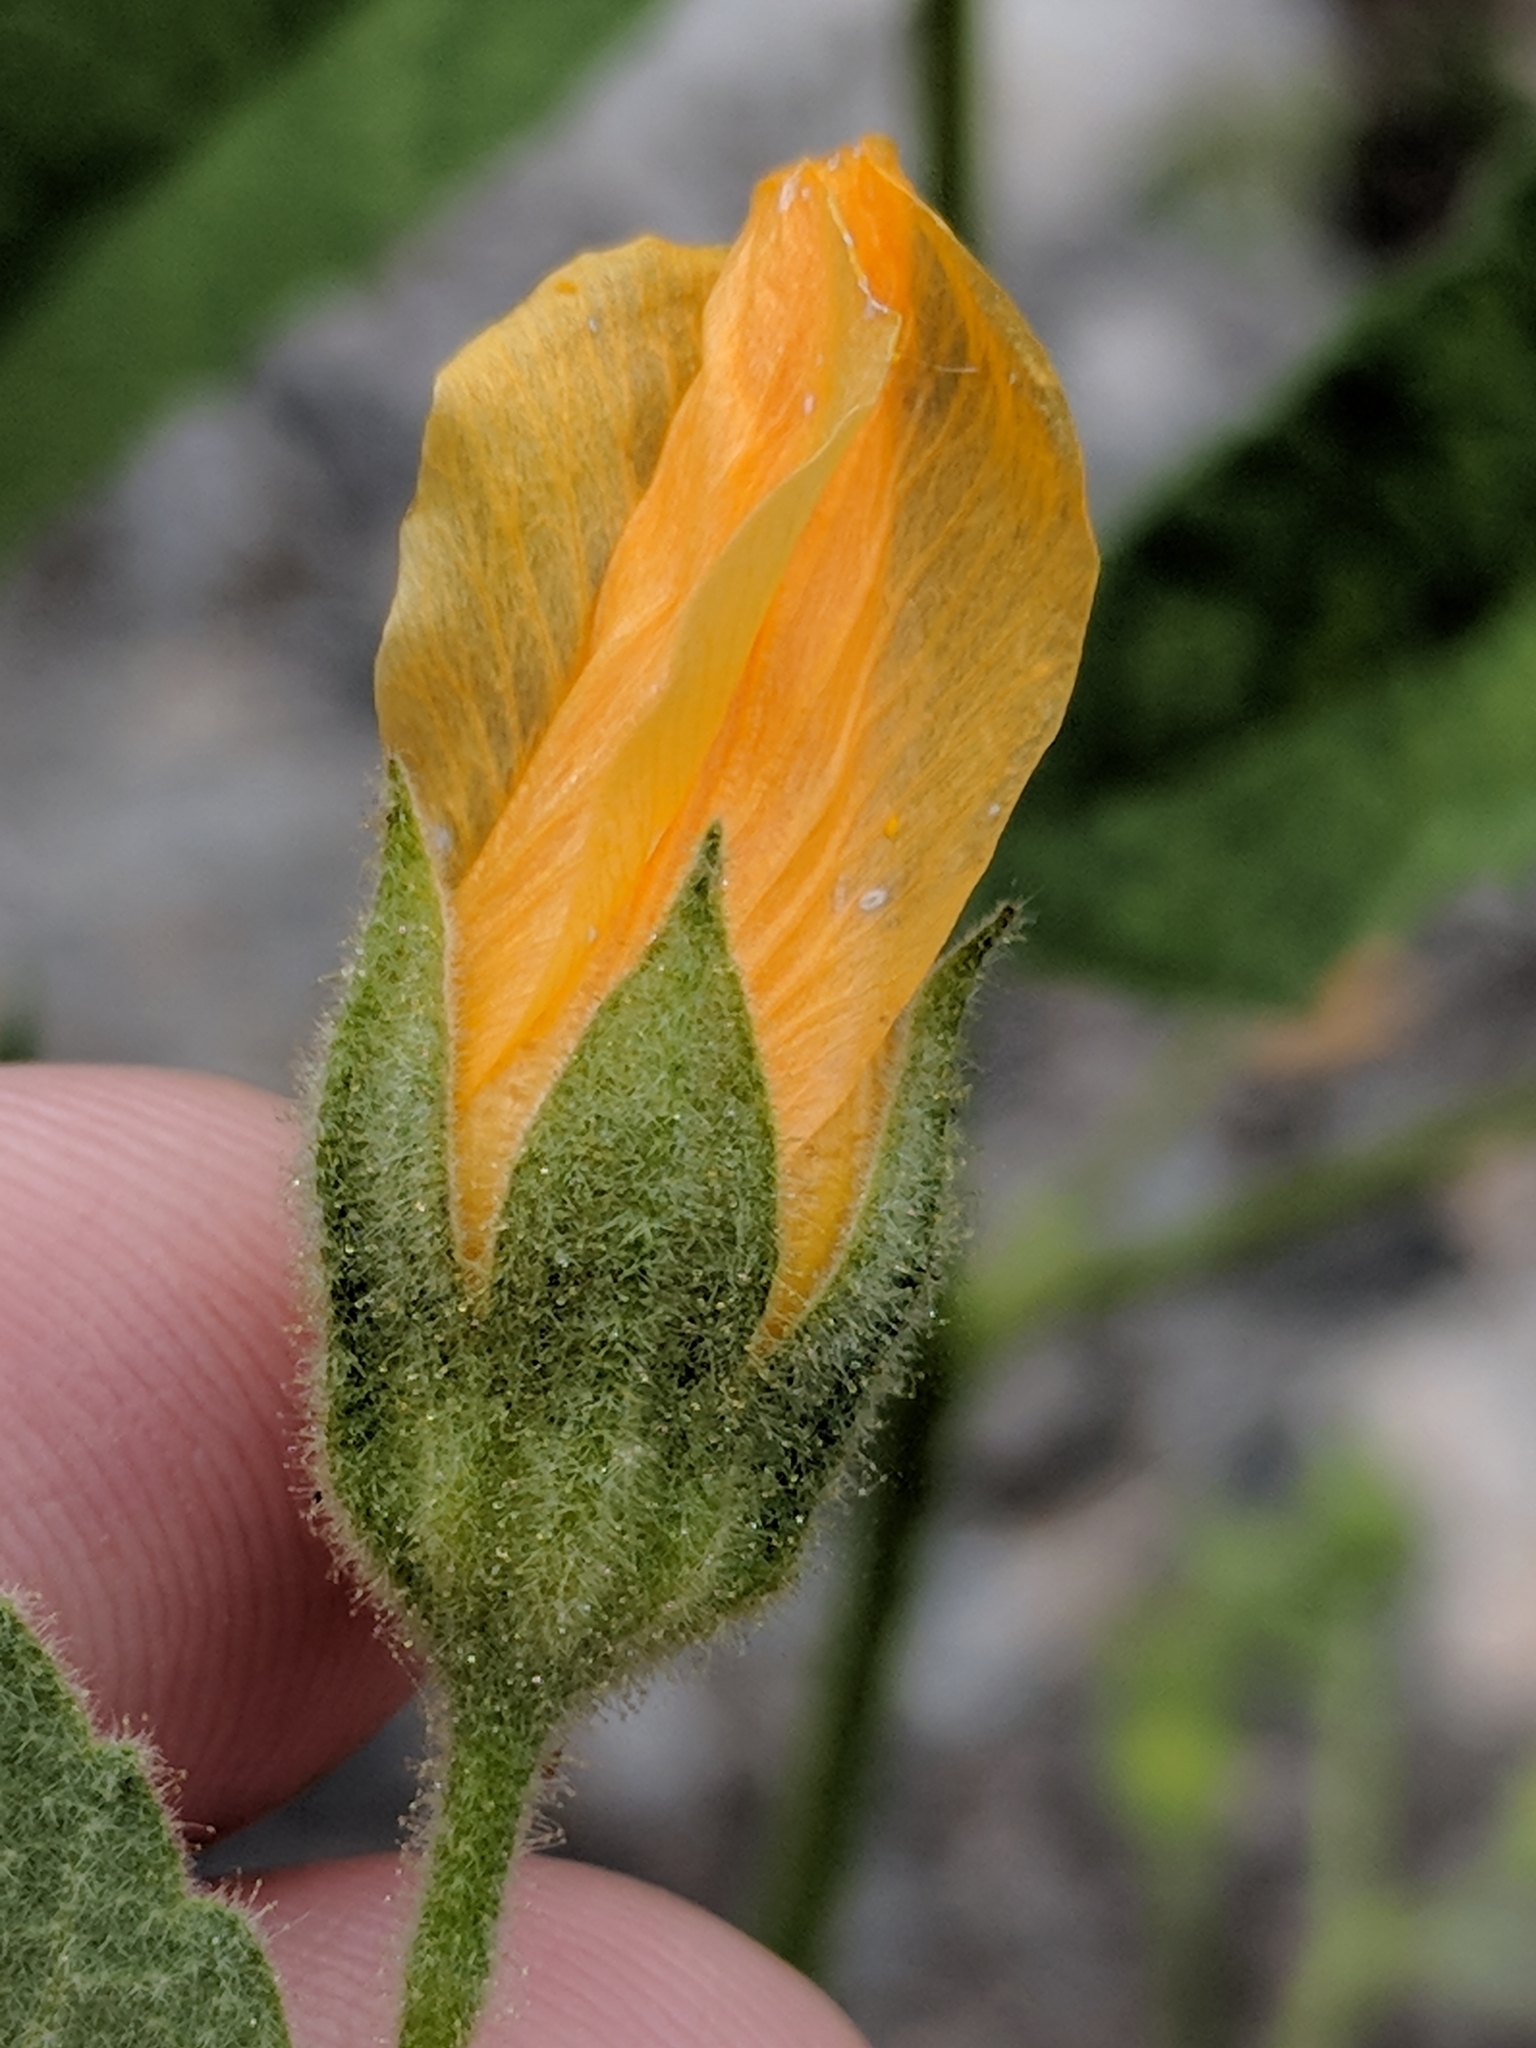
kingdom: Plantae
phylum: Tracheophyta
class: Magnoliopsida
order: Malvales
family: Malvaceae
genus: Allowissadula
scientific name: Allowissadula holosericea
